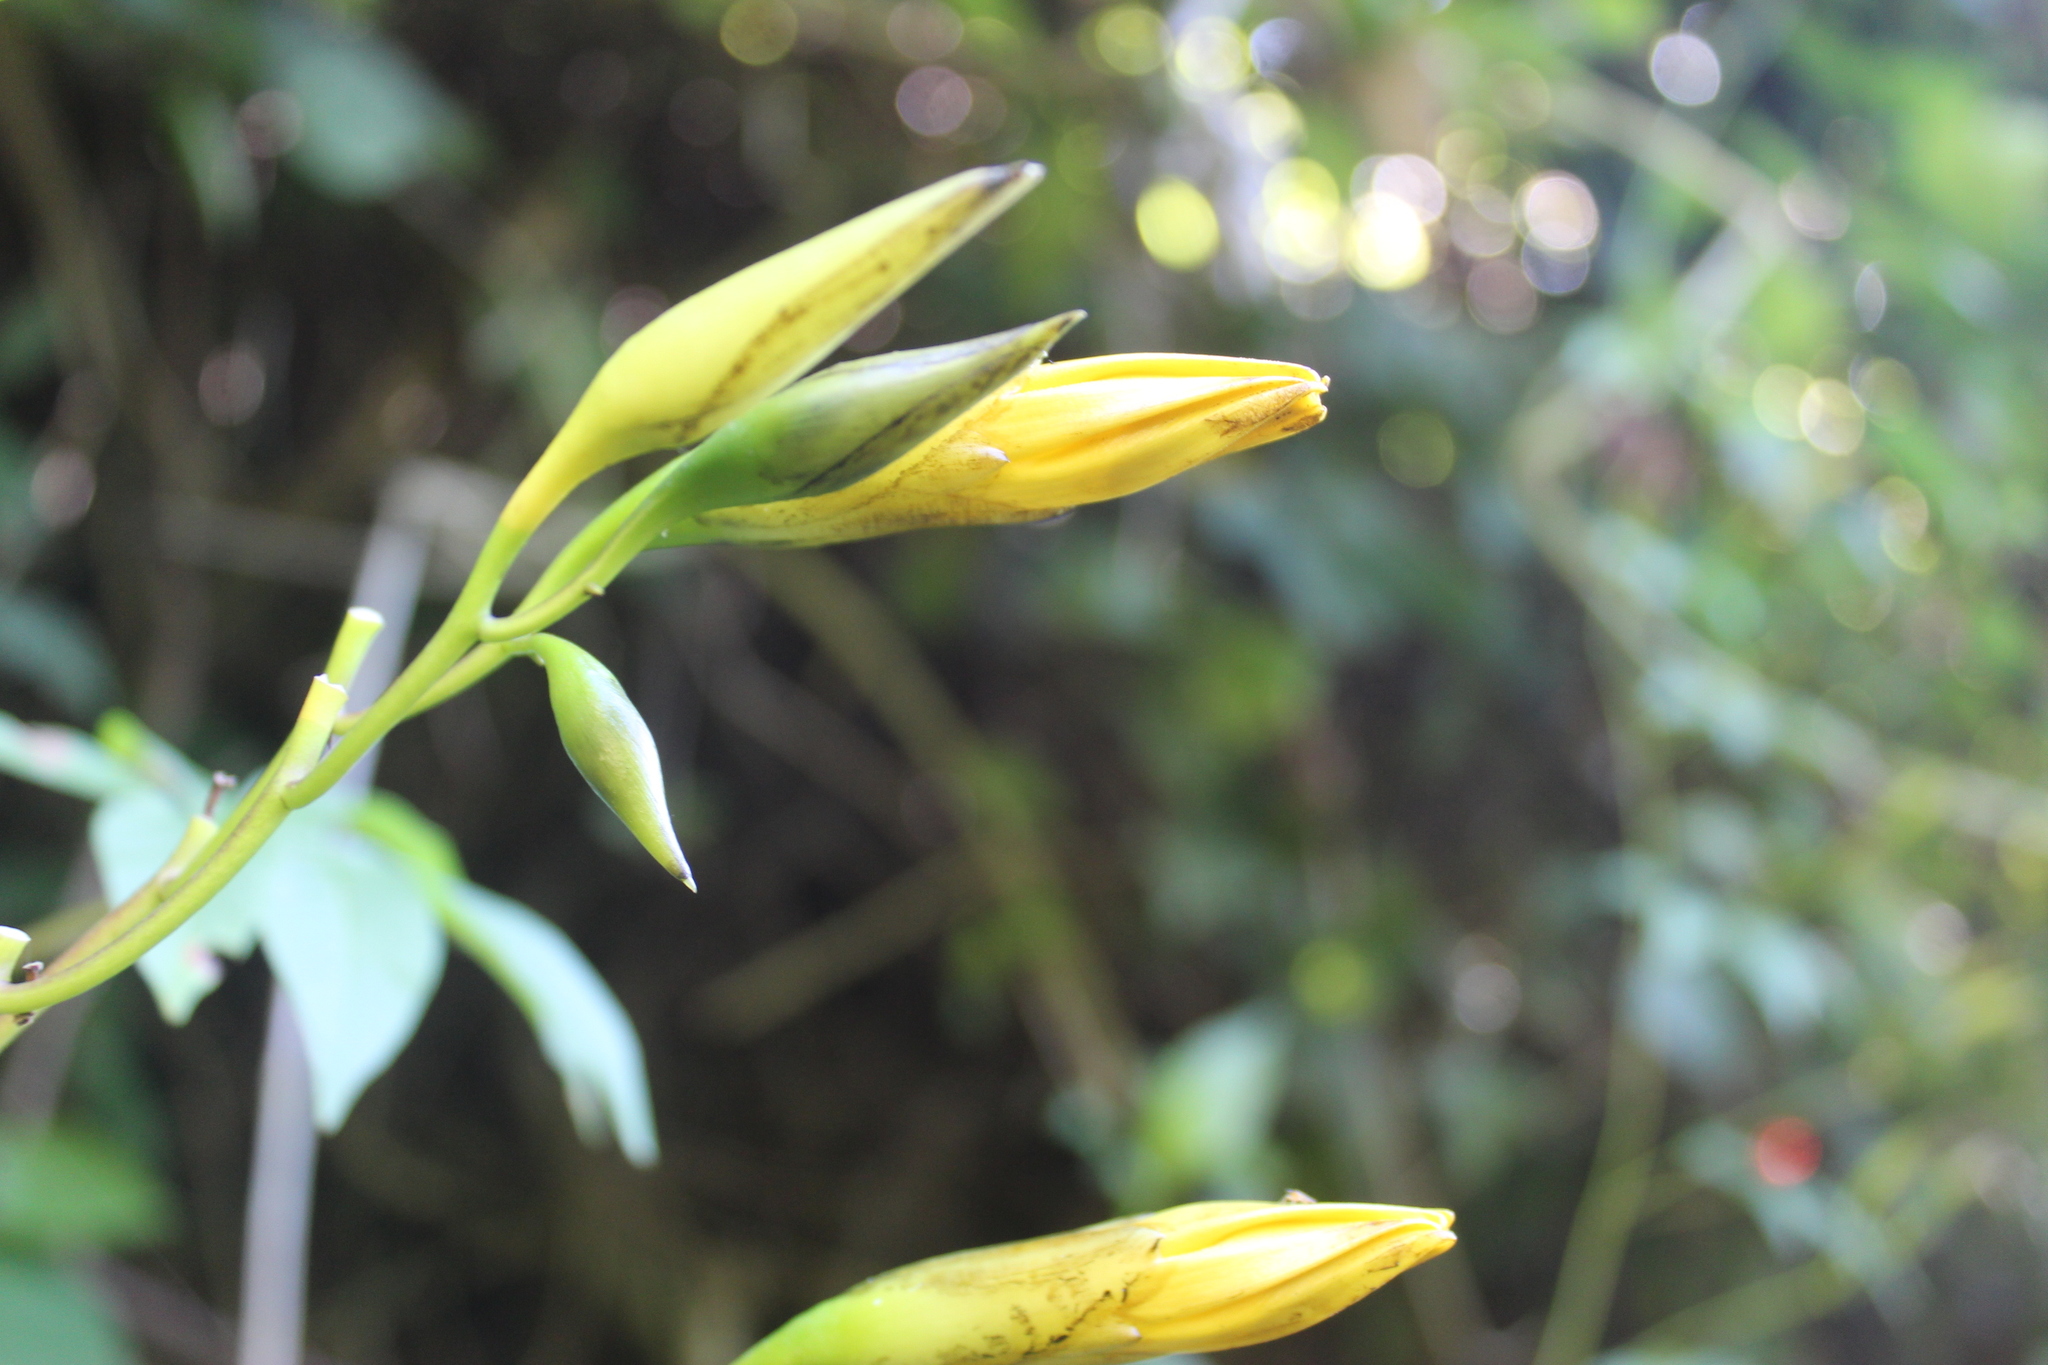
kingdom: Plantae
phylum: Tracheophyta
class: Magnoliopsida
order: Solanales
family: Convolvulaceae
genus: Distimake
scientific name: Distimake tuberosus
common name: Spanish arborvine
